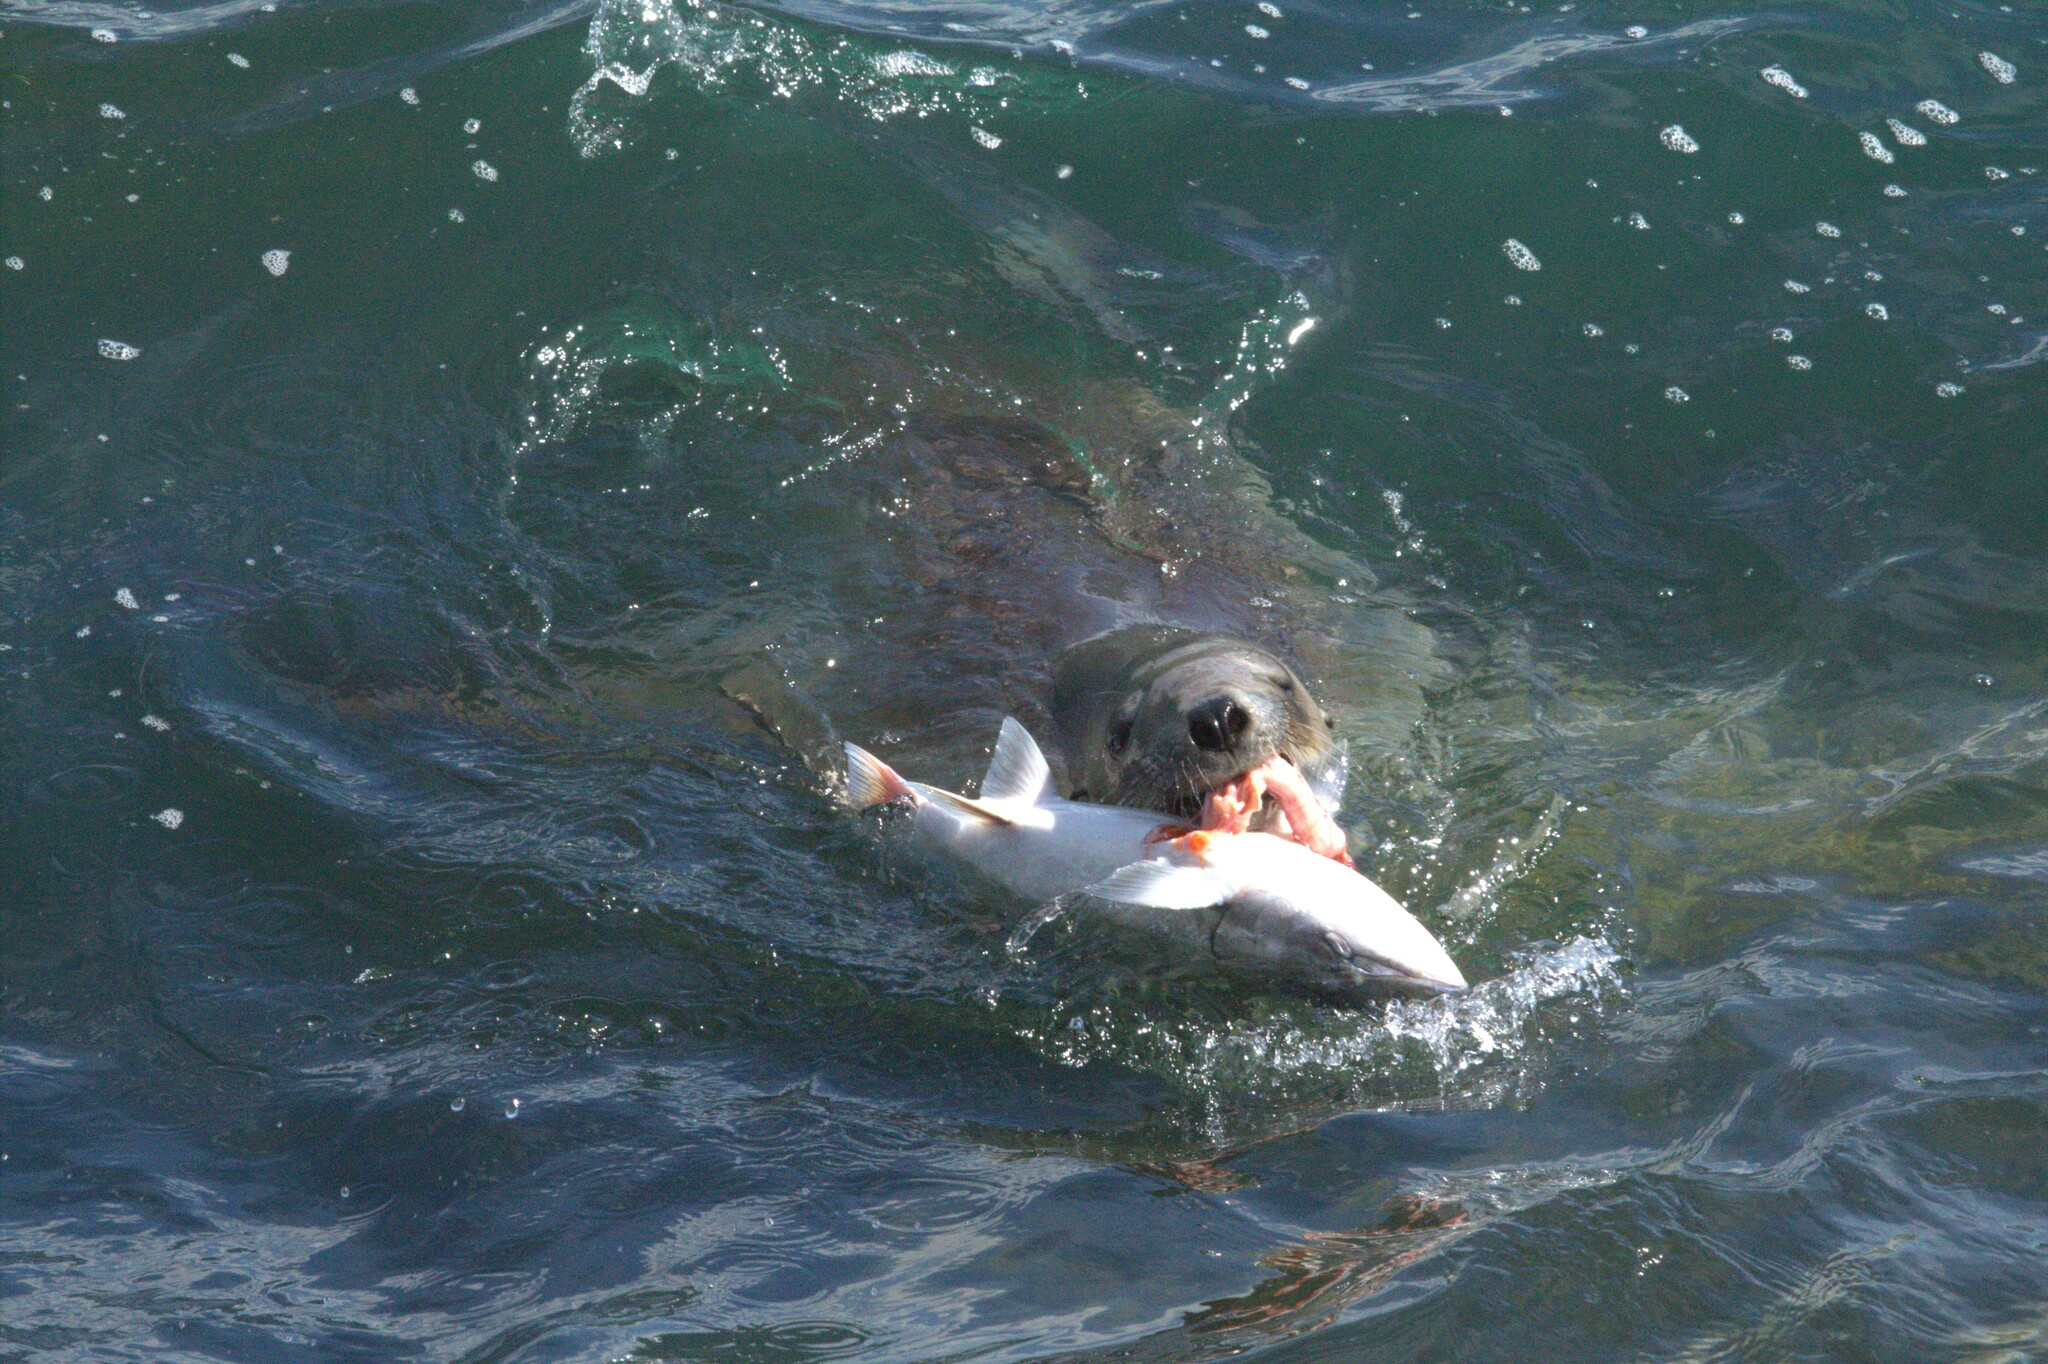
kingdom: Animalia
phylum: Chordata
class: Mammalia
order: Carnivora
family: Otariidae
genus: Phocarctos
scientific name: Phocarctos hookeri
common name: New zealand sea lion
